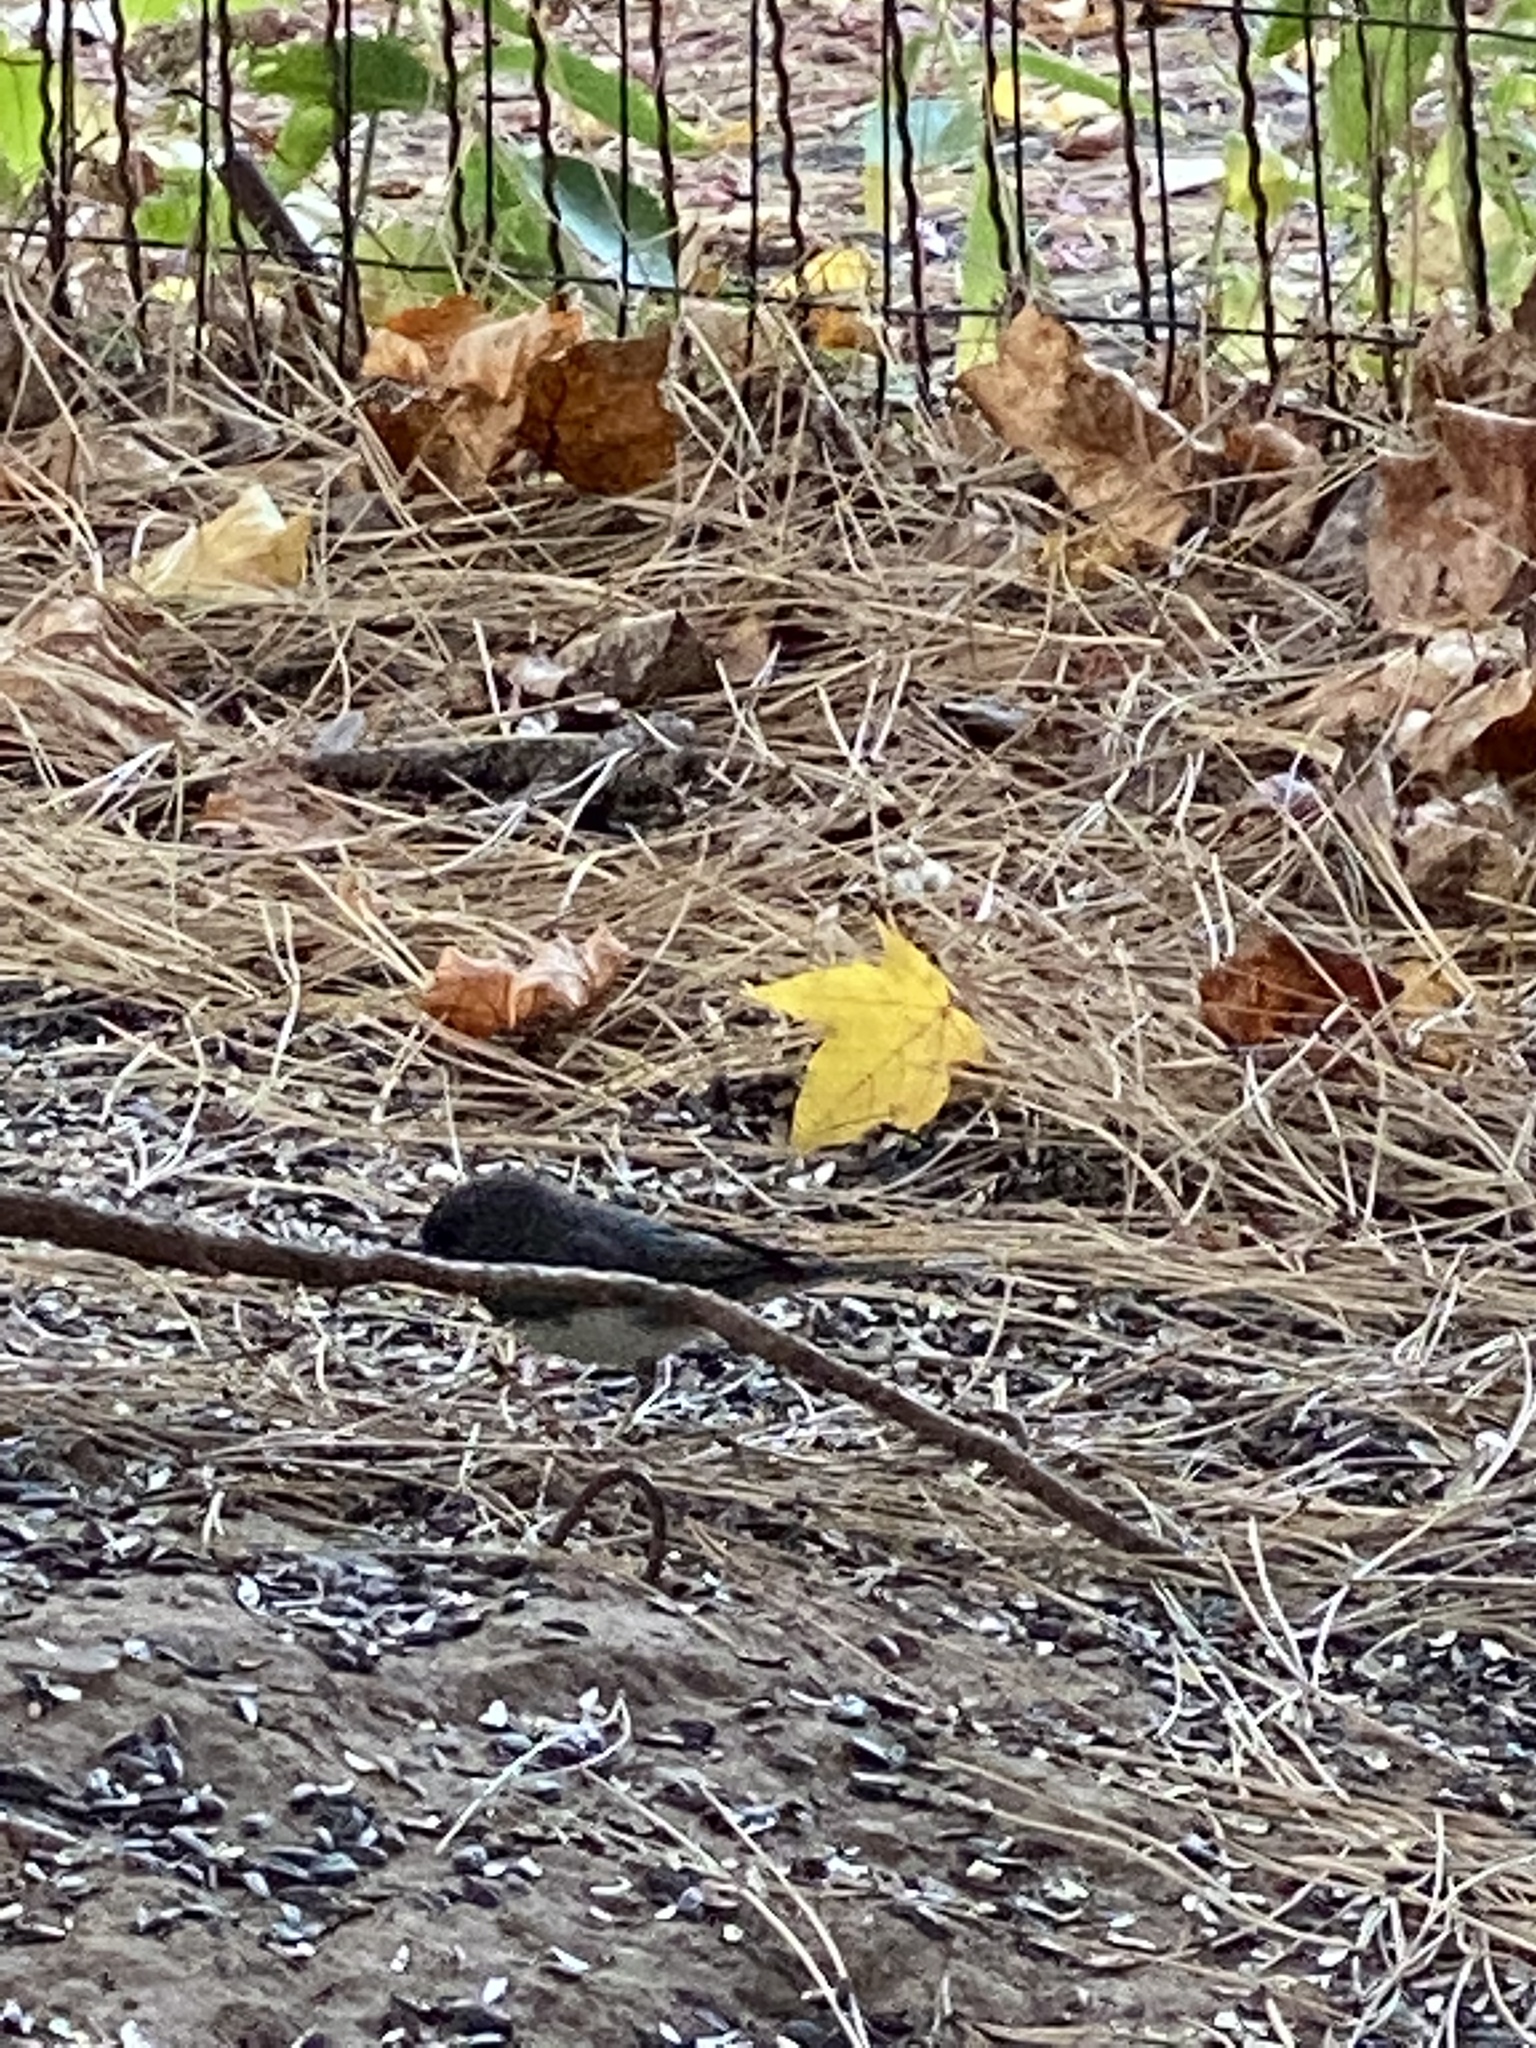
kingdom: Animalia
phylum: Chordata
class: Aves
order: Passeriformes
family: Passerellidae
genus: Junco
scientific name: Junco hyemalis
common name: Dark-eyed junco
